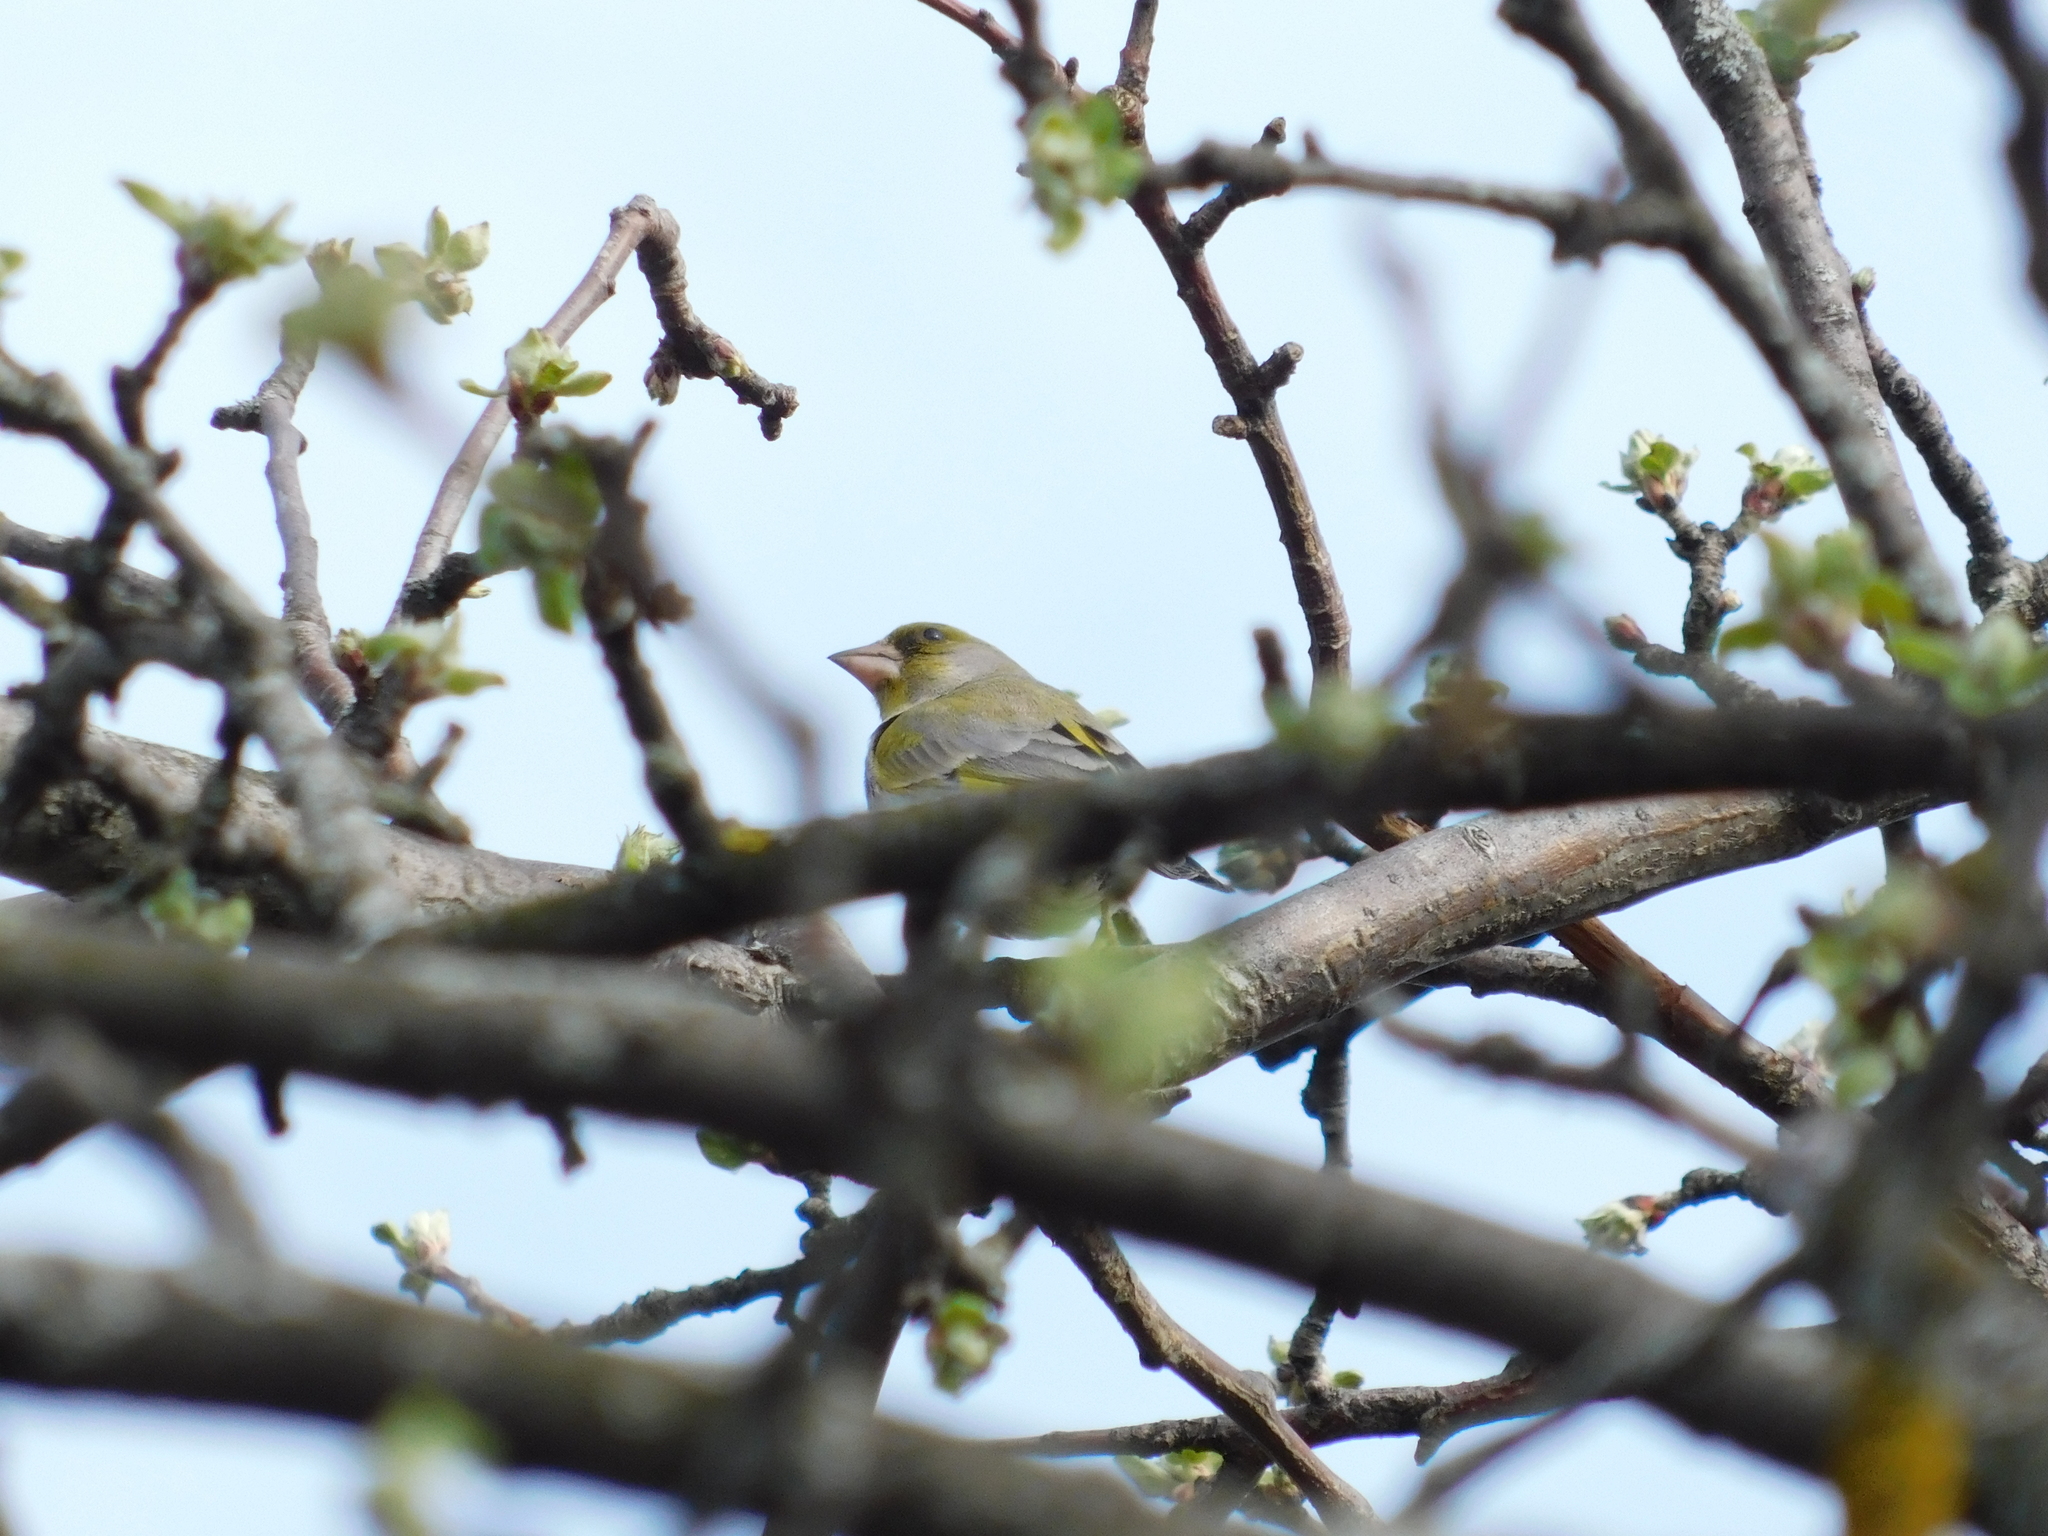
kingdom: Plantae
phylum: Tracheophyta
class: Liliopsida
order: Poales
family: Poaceae
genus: Chloris
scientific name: Chloris chloris
